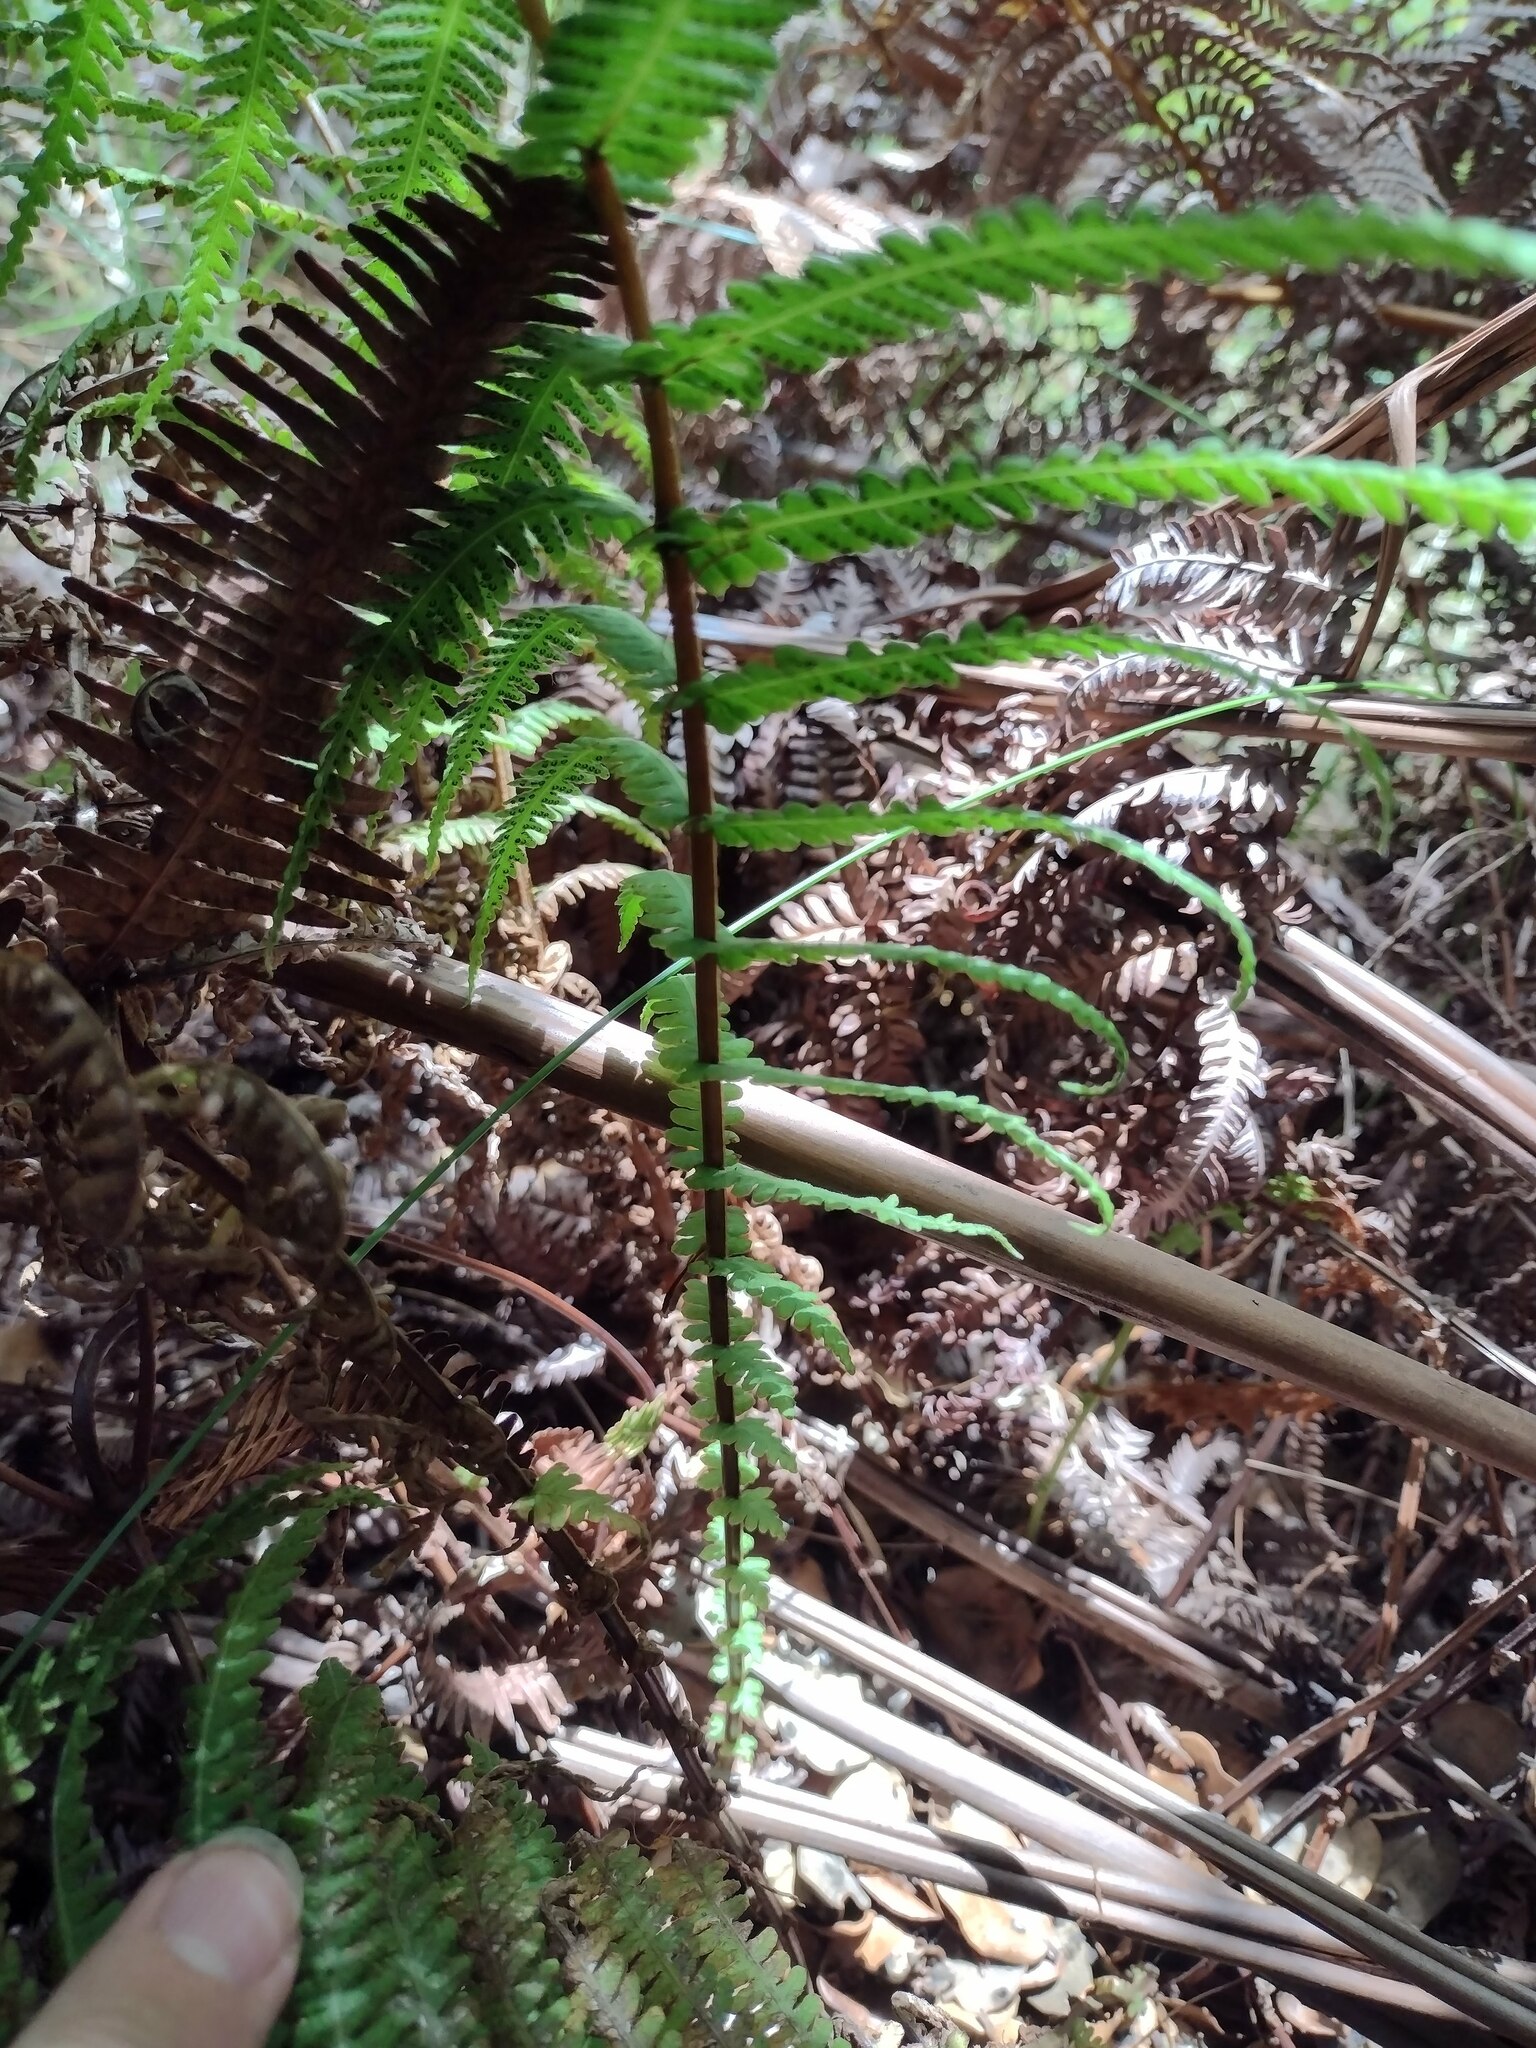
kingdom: Plantae
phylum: Tracheophyta
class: Polypodiopsida
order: Polypodiales
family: Thelypteridaceae
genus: Amauropelta
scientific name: Amauropelta globulifera
